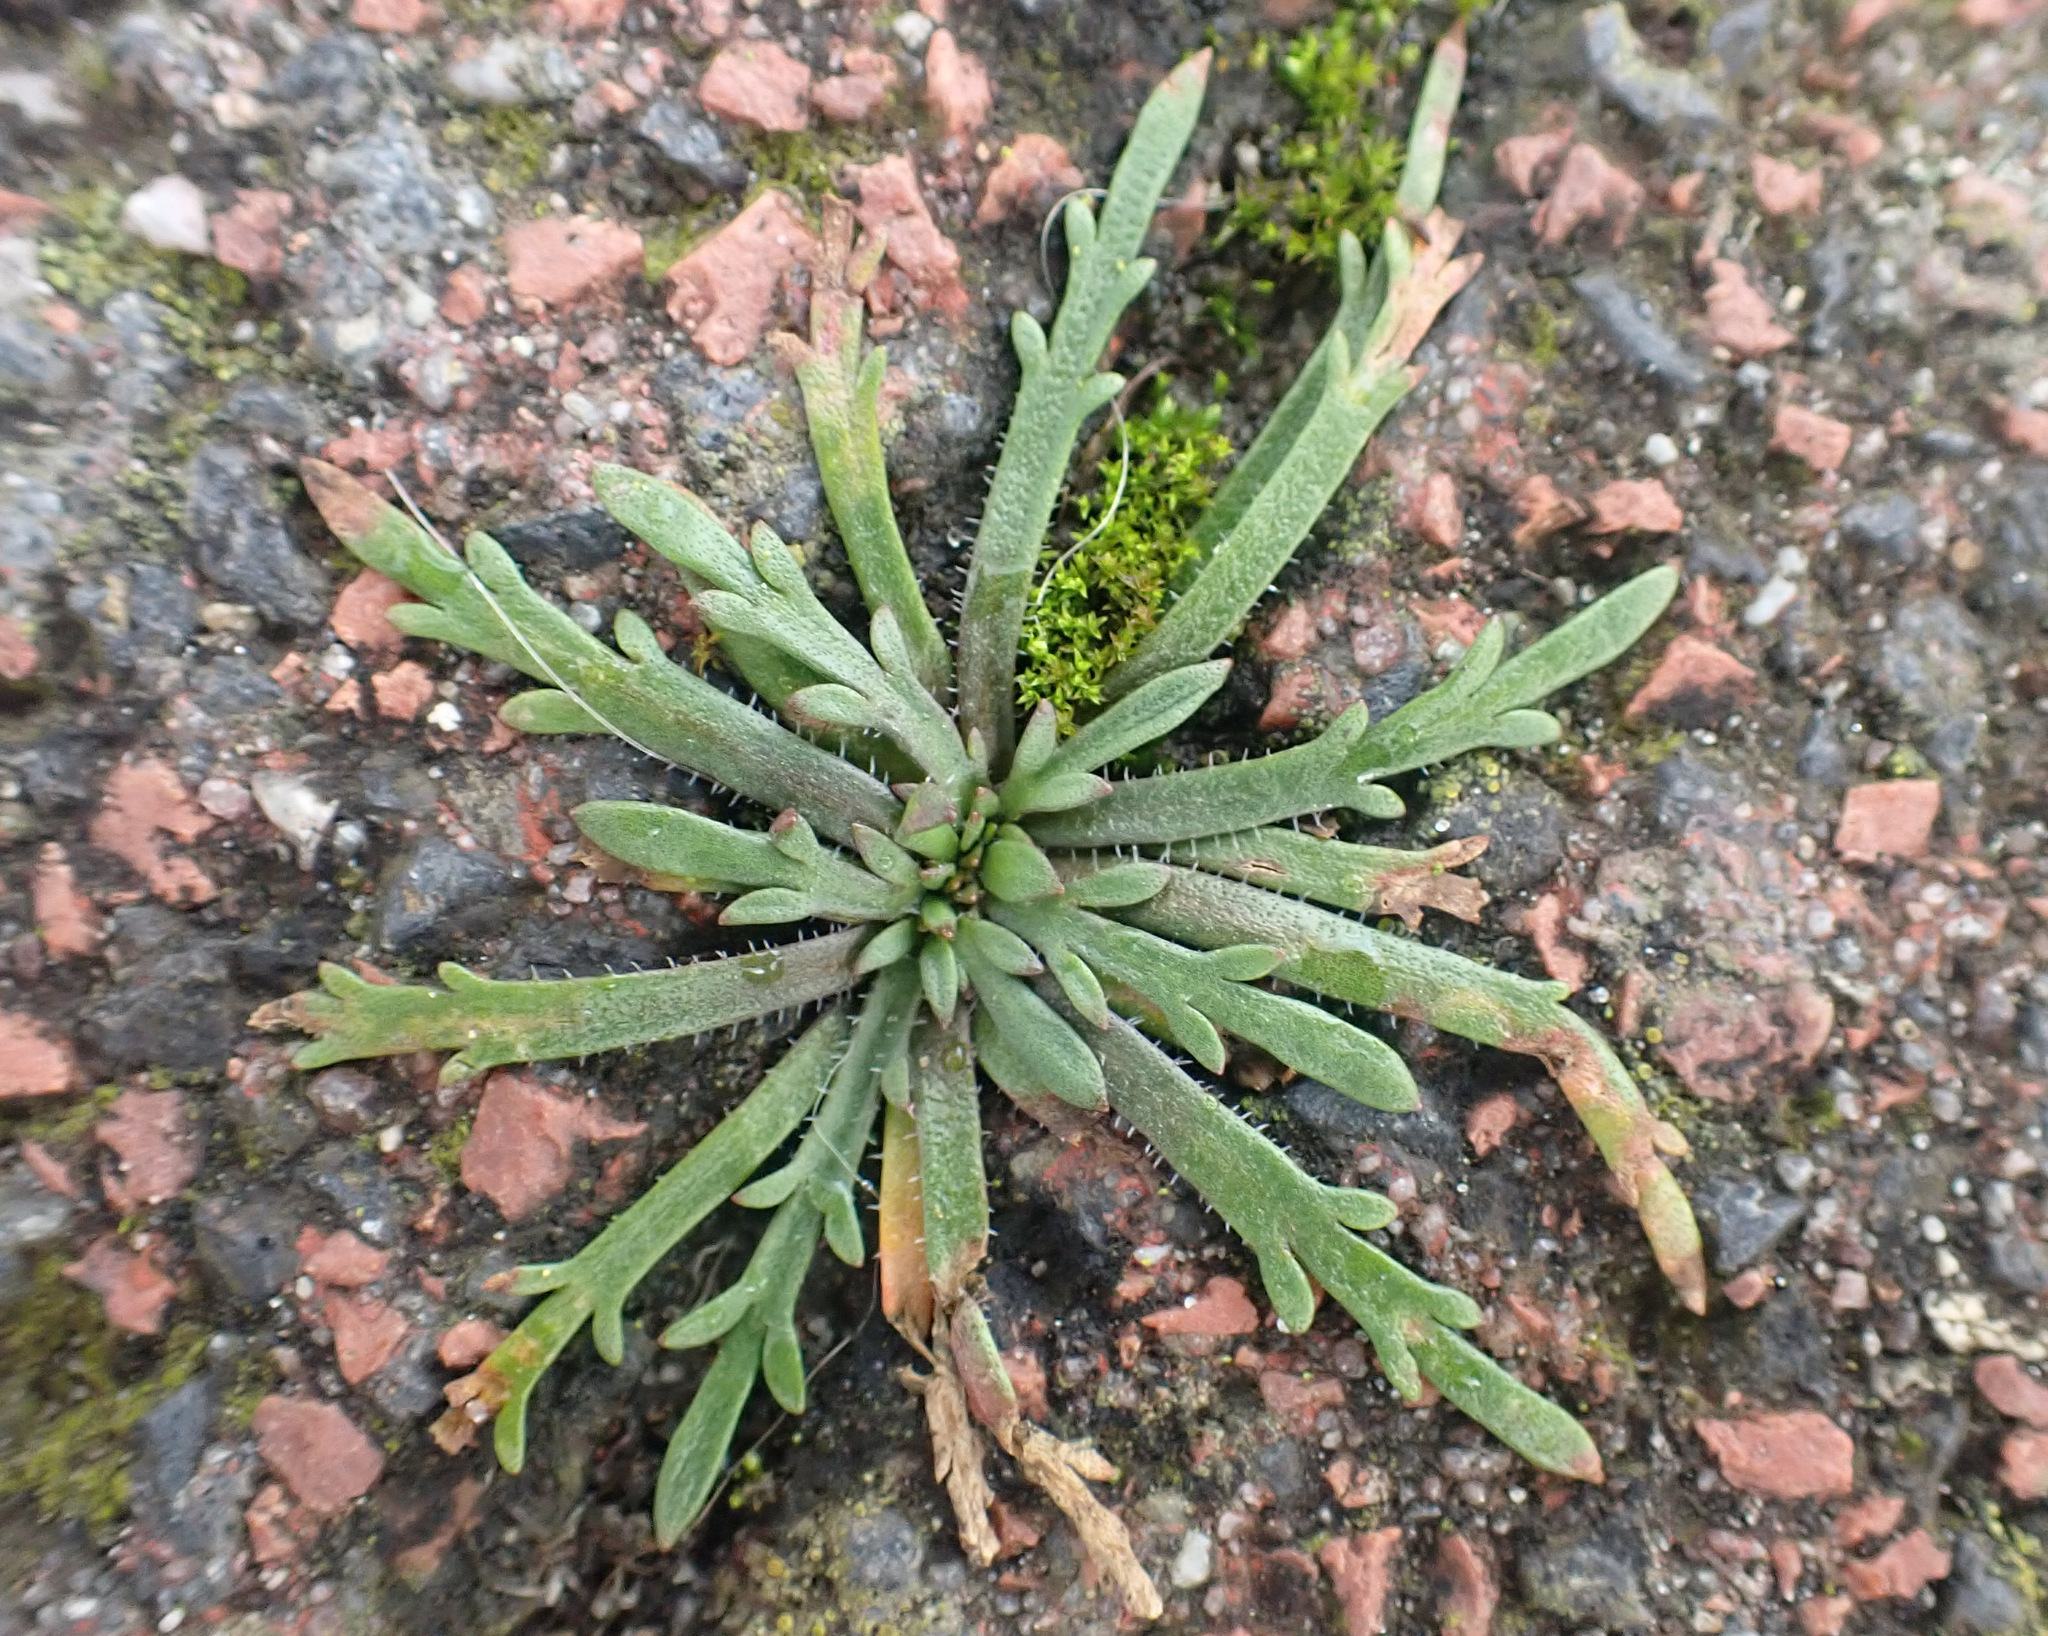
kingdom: Plantae
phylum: Tracheophyta
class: Magnoliopsida
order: Lamiales
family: Plantaginaceae
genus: Plantago
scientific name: Plantago coronopus
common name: Buck's-horn plantain
